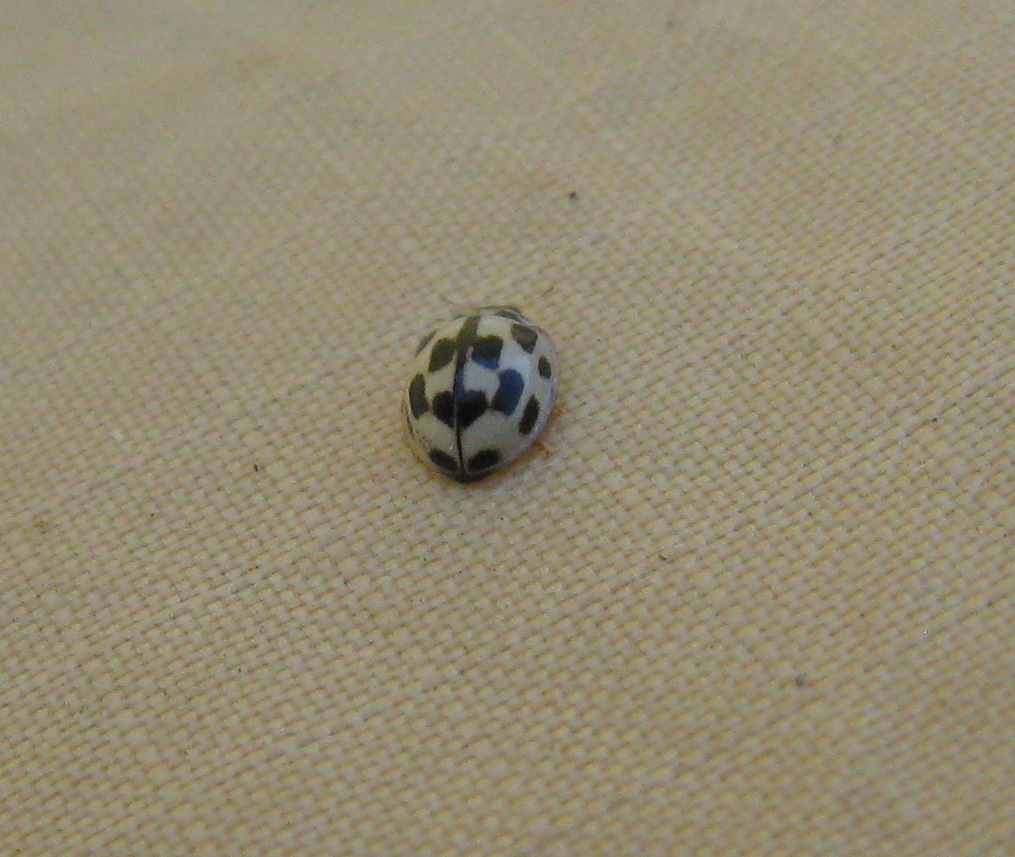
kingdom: Animalia
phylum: Arthropoda
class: Insecta
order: Coleoptera
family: Coccinellidae
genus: Propylaea
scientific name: Propylaea quatuordecimpunctata
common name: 14-spotted ladybird beetle
